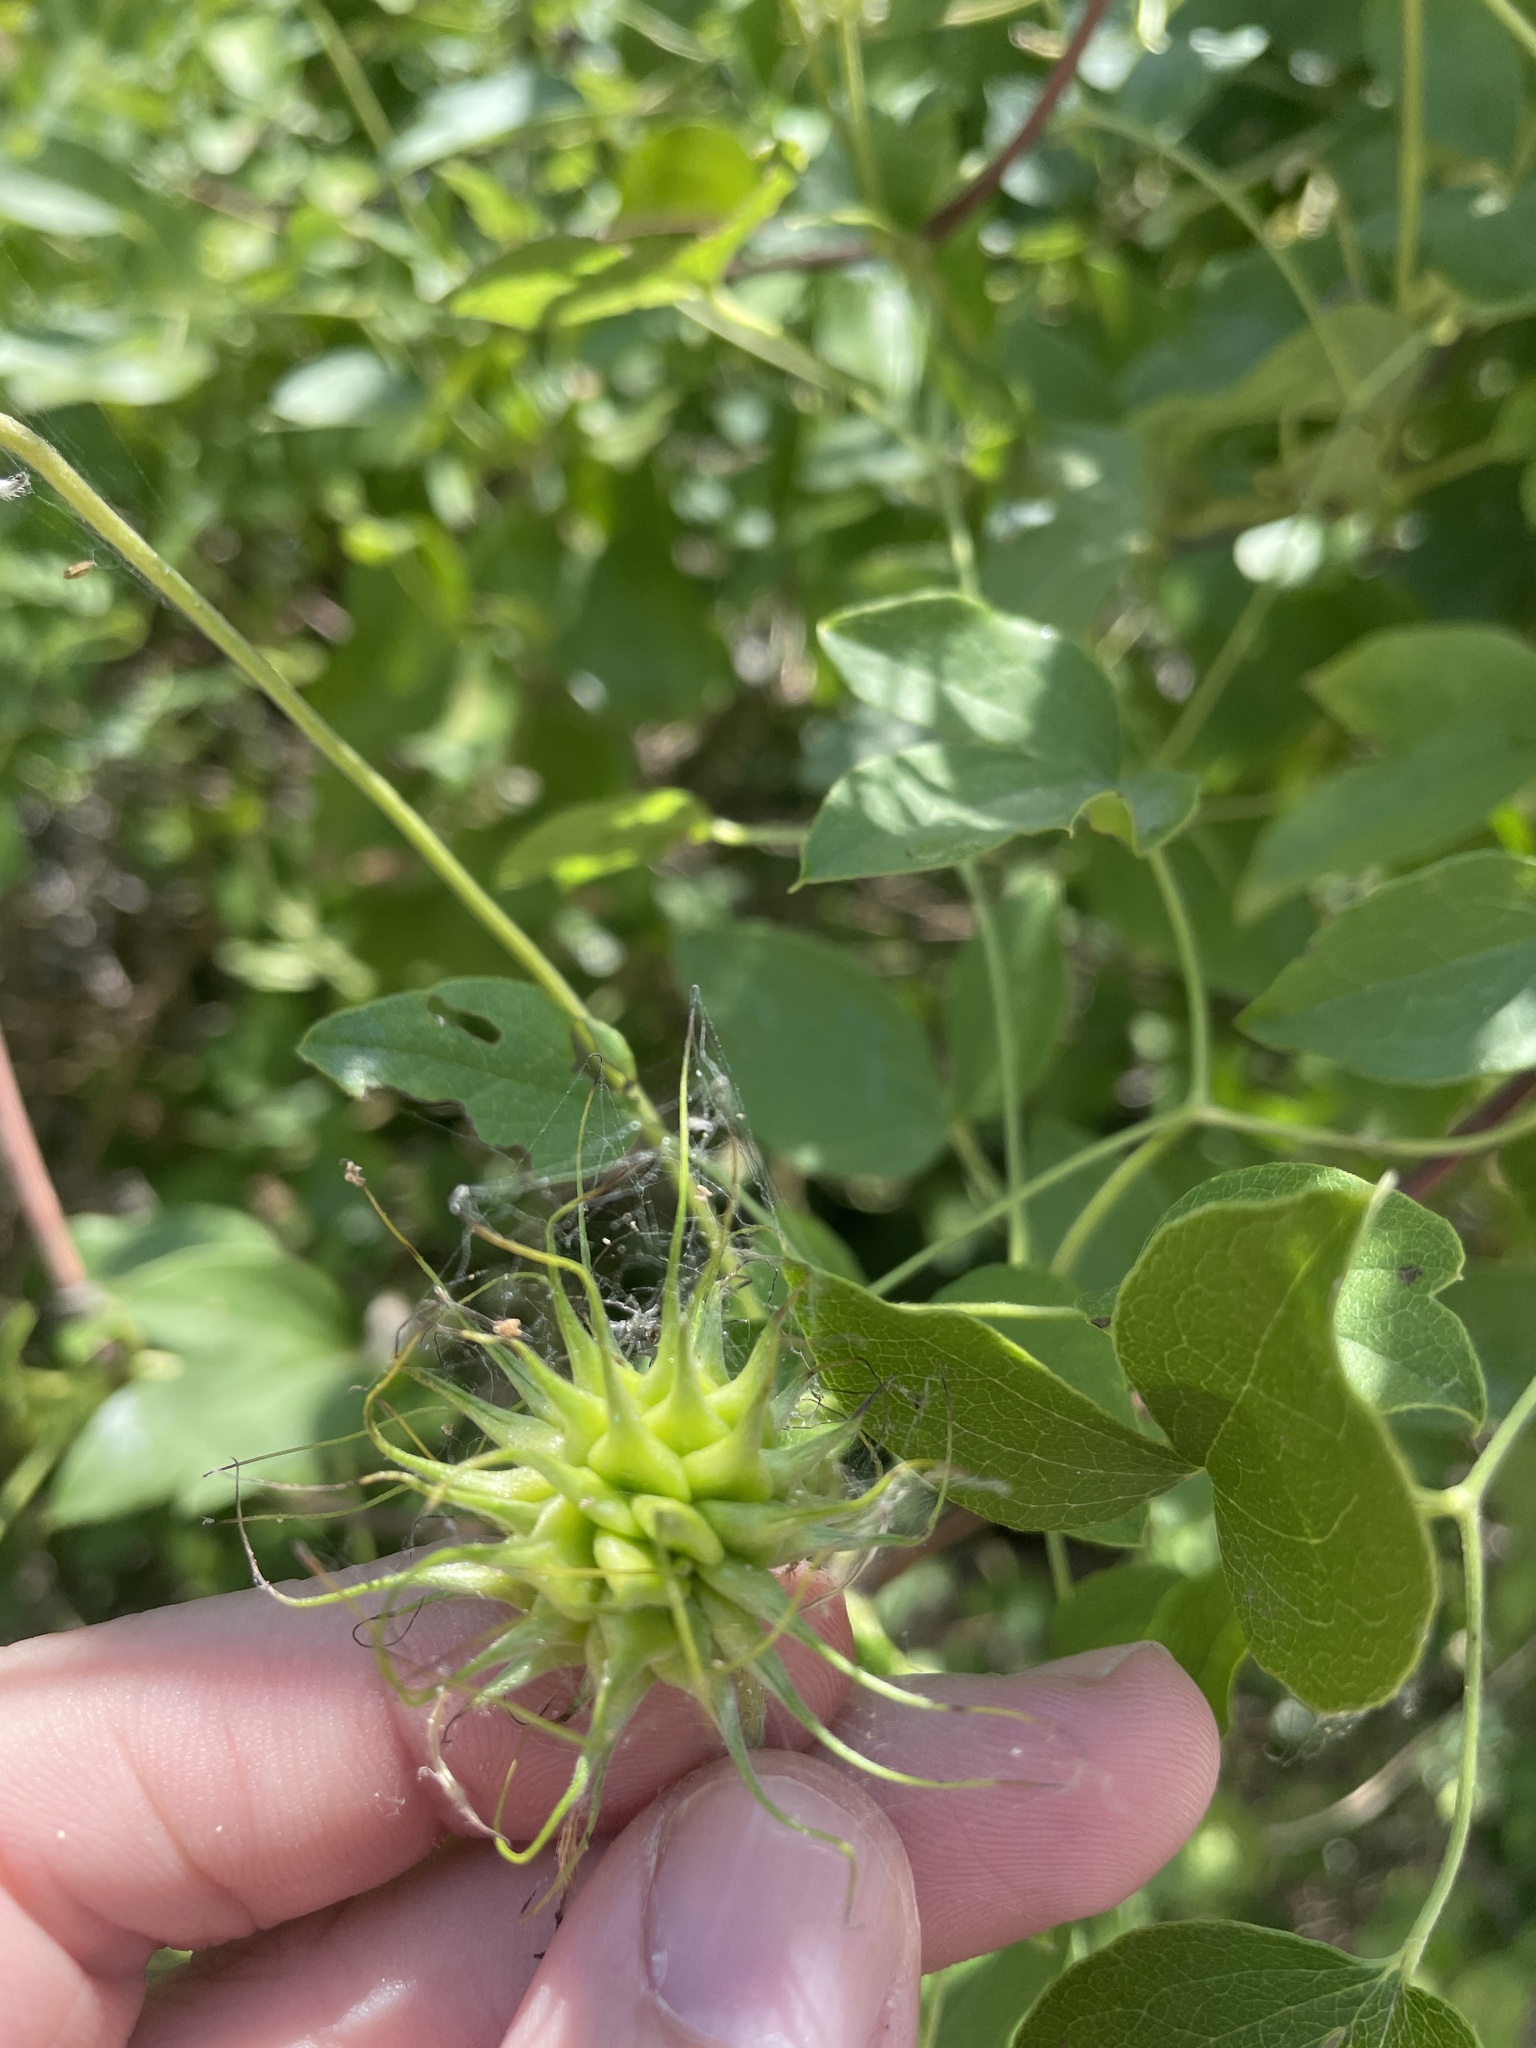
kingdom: Plantae
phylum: Tracheophyta
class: Magnoliopsida
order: Ranunculales
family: Ranunculaceae
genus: Clematis
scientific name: Clematis pitcheri
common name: Bellflower clematis
